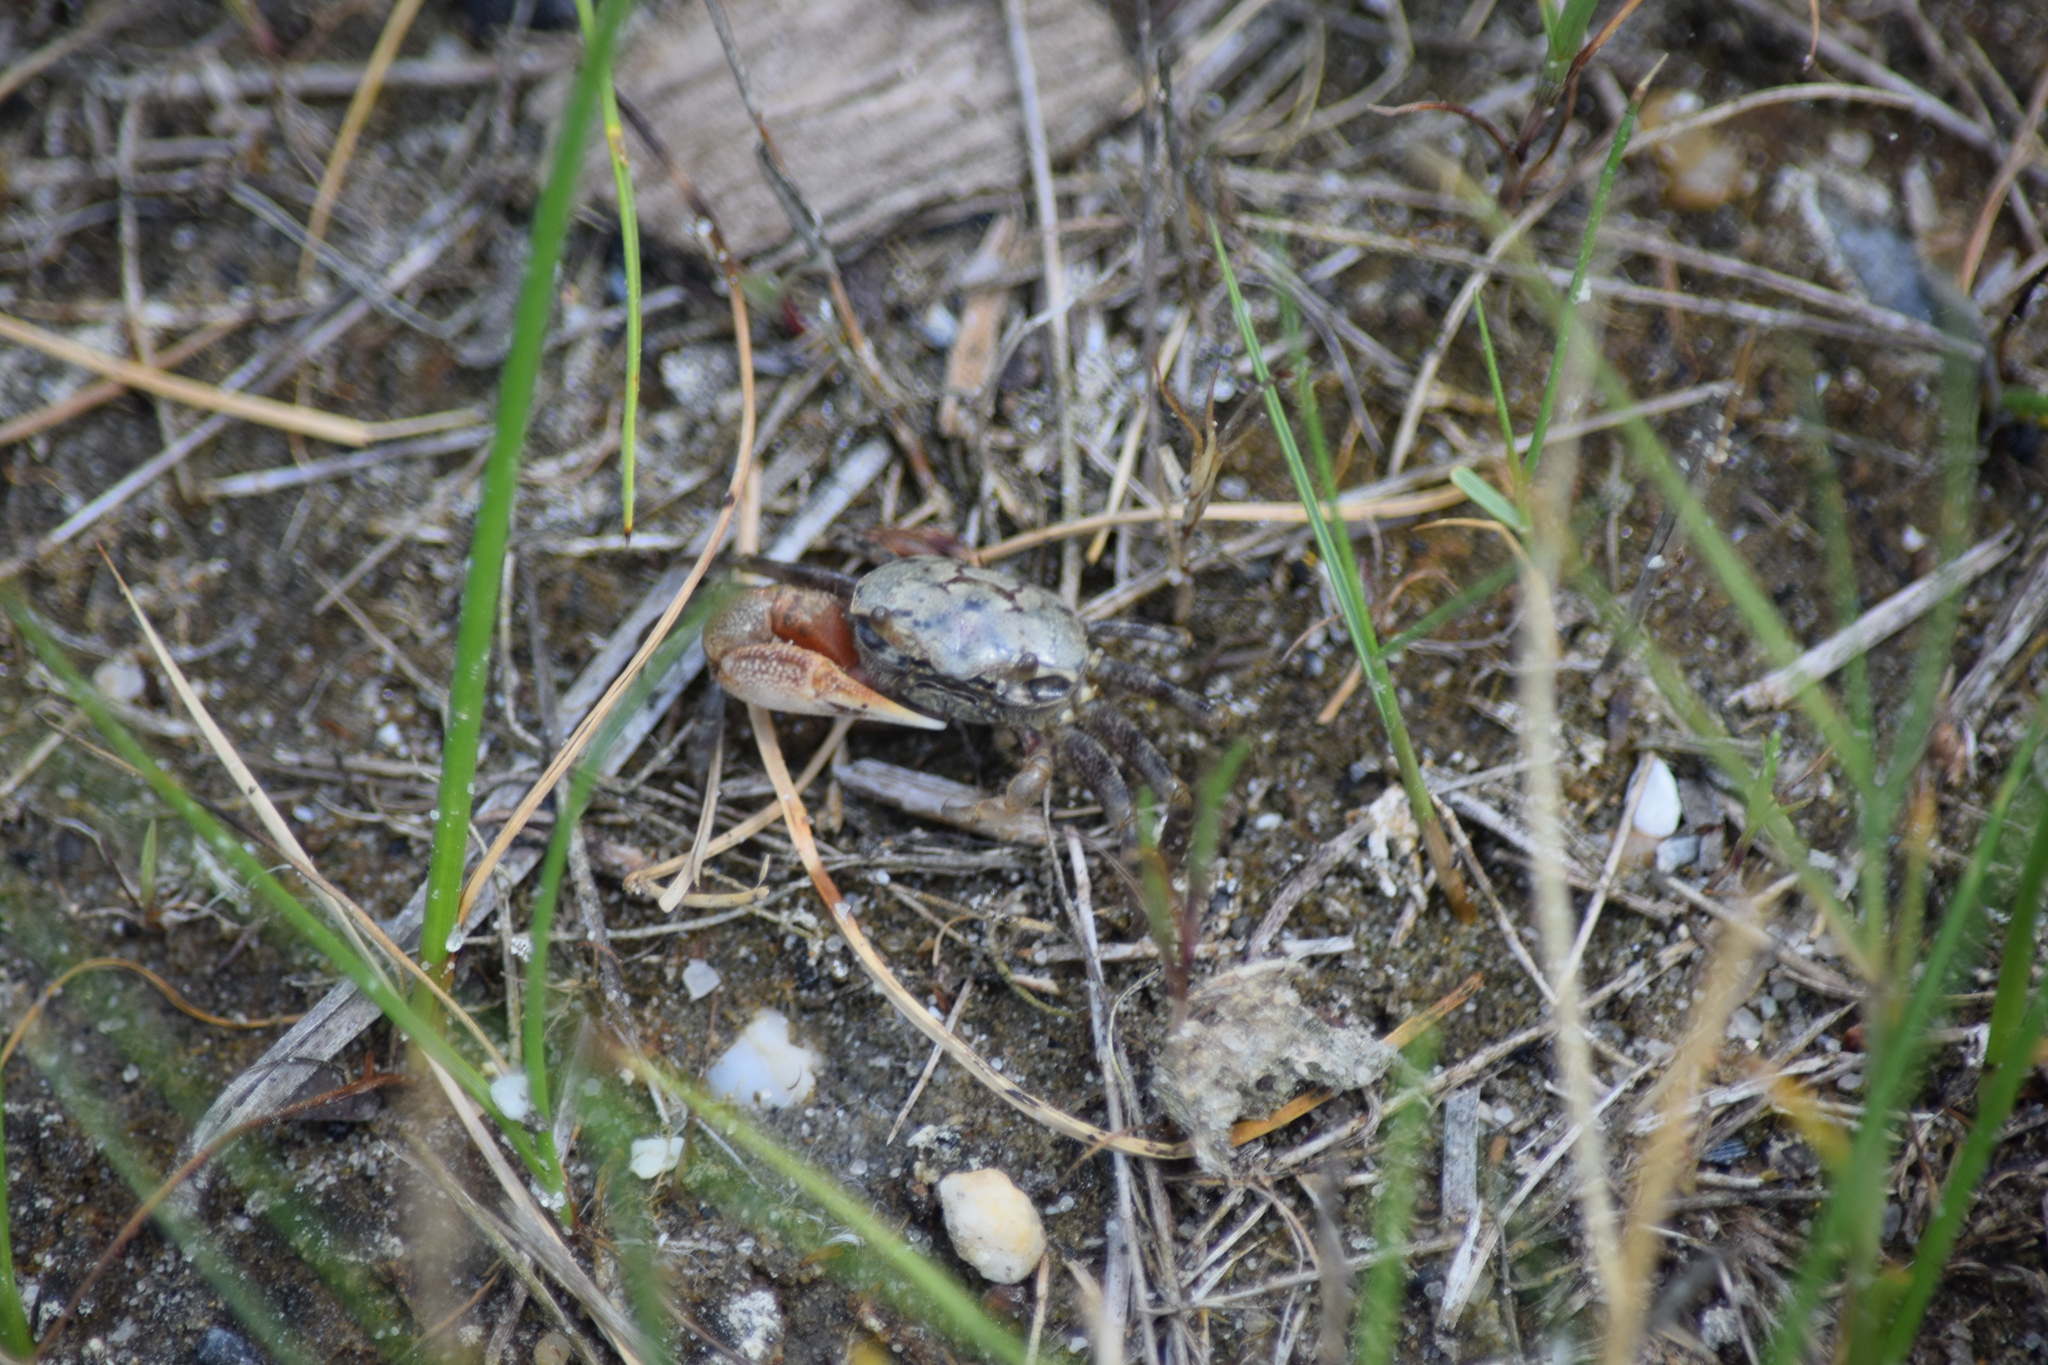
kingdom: Animalia
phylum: Arthropoda
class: Malacostraca
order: Decapoda
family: Ocypodidae
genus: Leptuca
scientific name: Leptuca pugilator
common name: Atlantic sand fiddler crab
